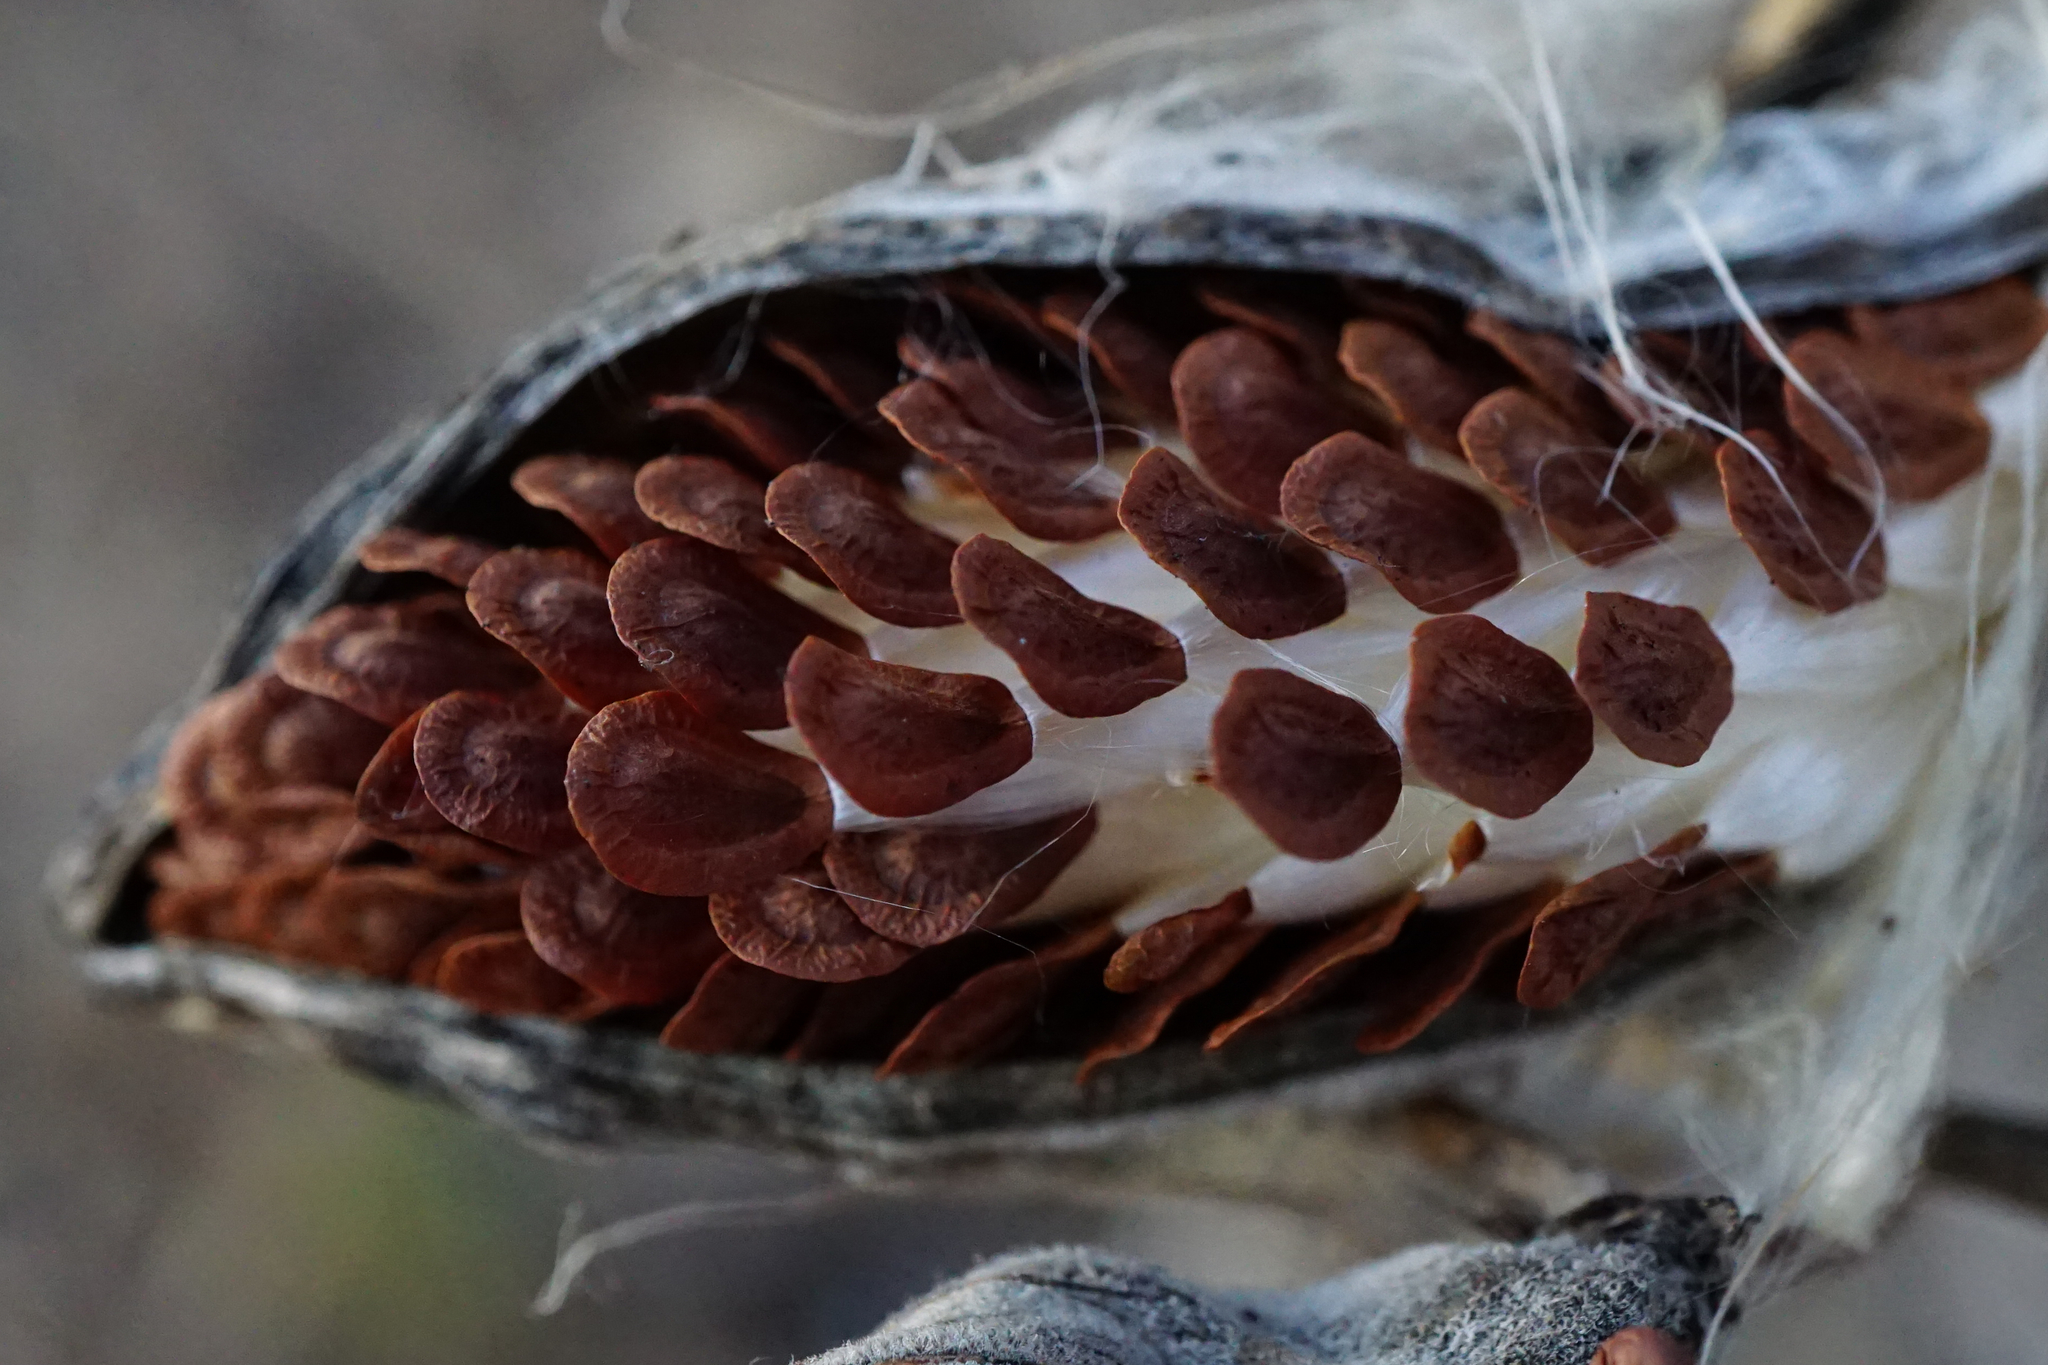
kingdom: Plantae
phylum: Tracheophyta
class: Magnoliopsida
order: Gentianales
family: Apocynaceae
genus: Asclepias
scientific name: Asclepias syriaca
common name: Common milkweed
